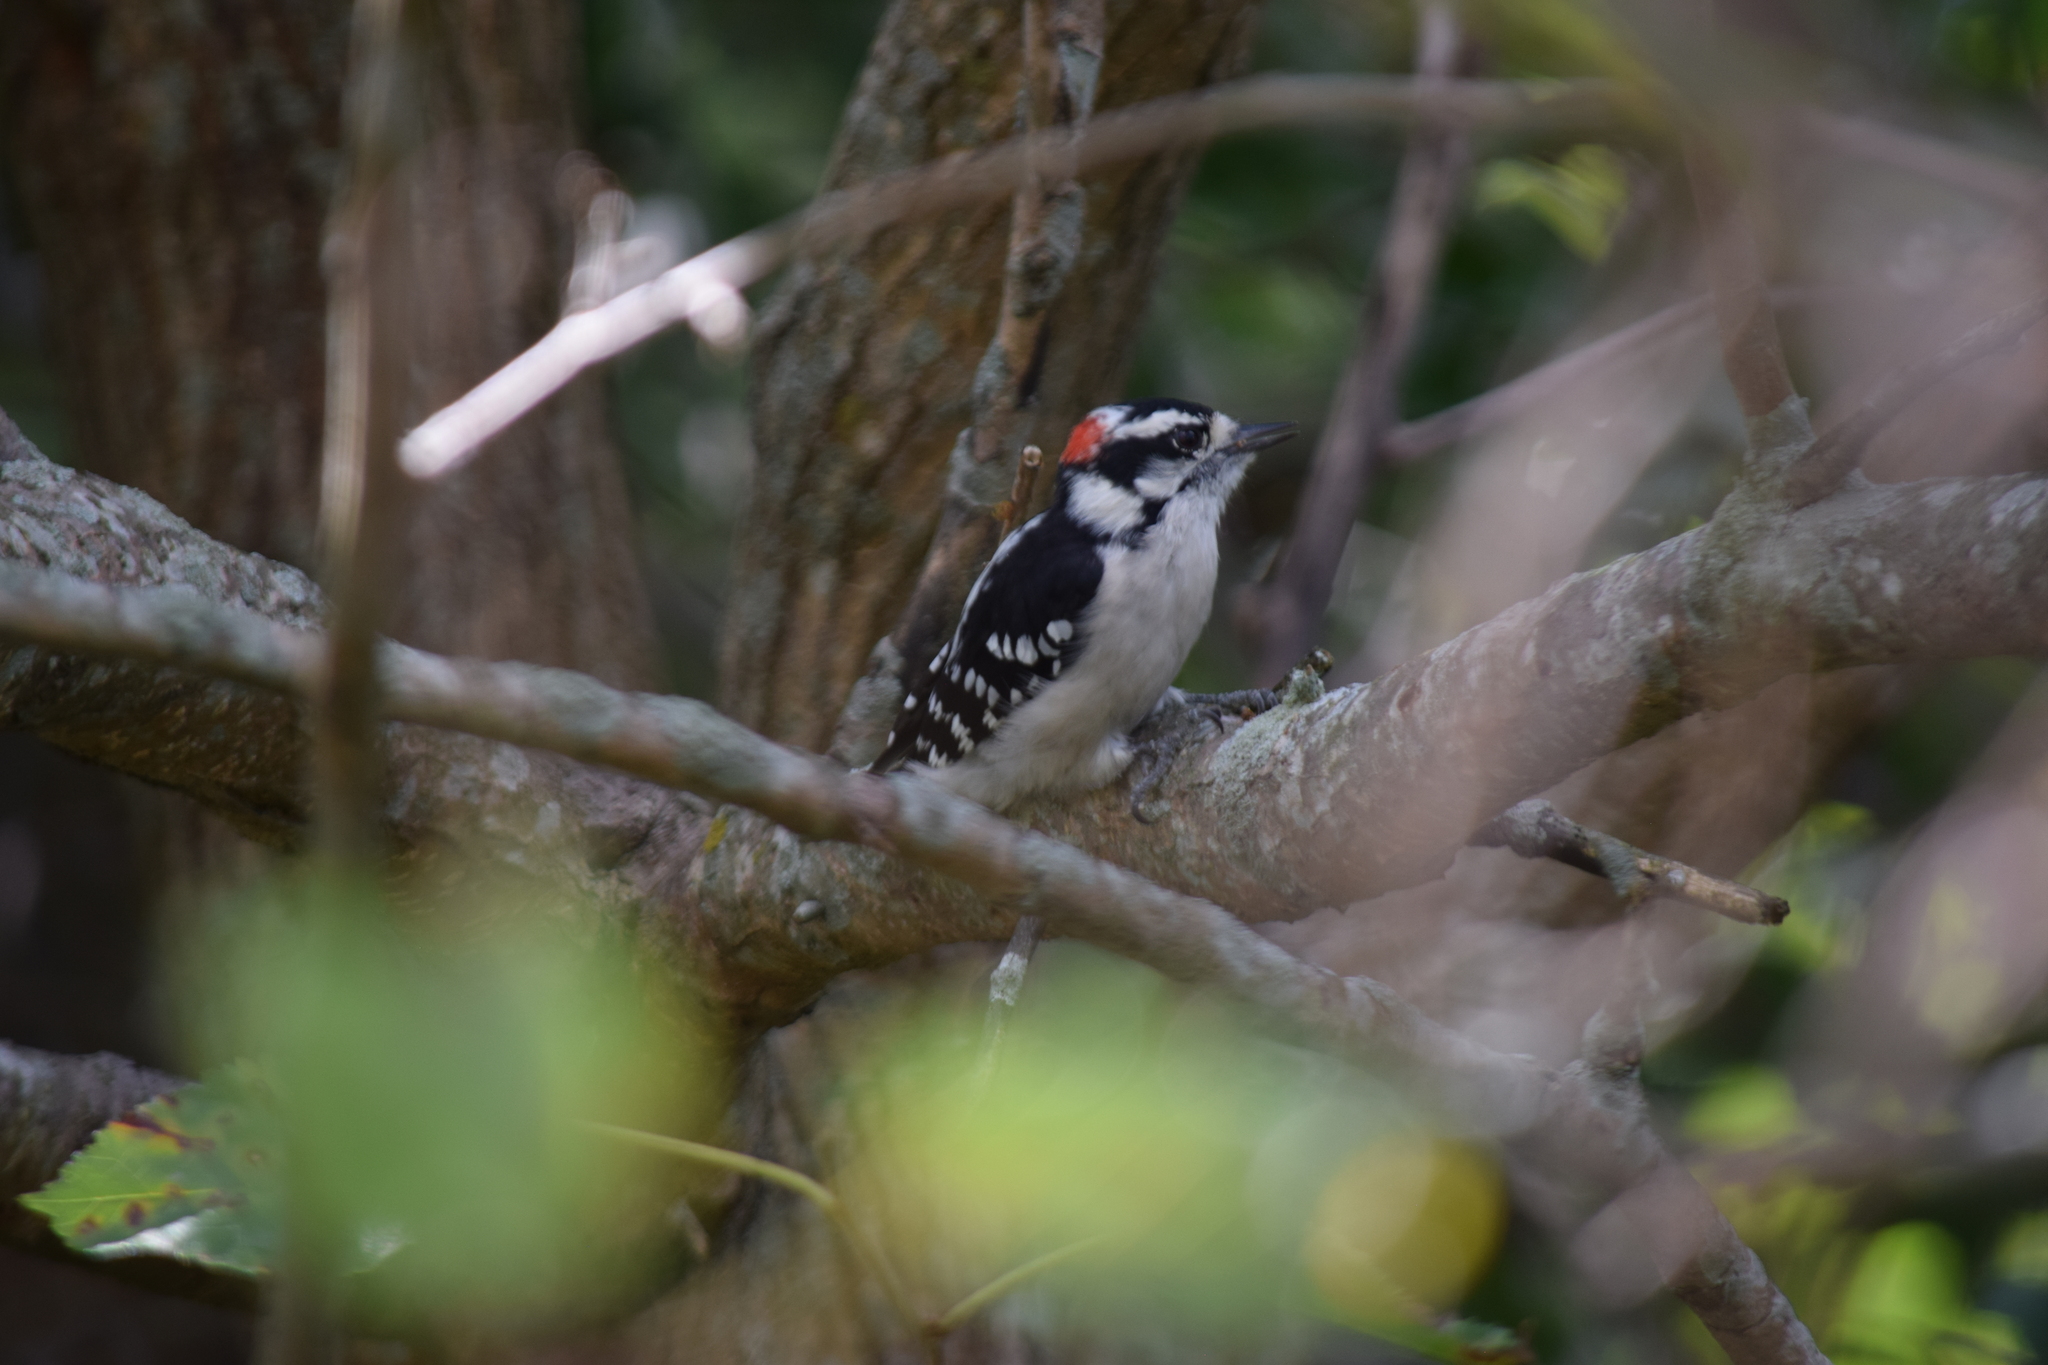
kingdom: Animalia
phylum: Chordata
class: Aves
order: Piciformes
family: Picidae
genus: Dryobates
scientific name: Dryobates pubescens
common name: Downy woodpecker
